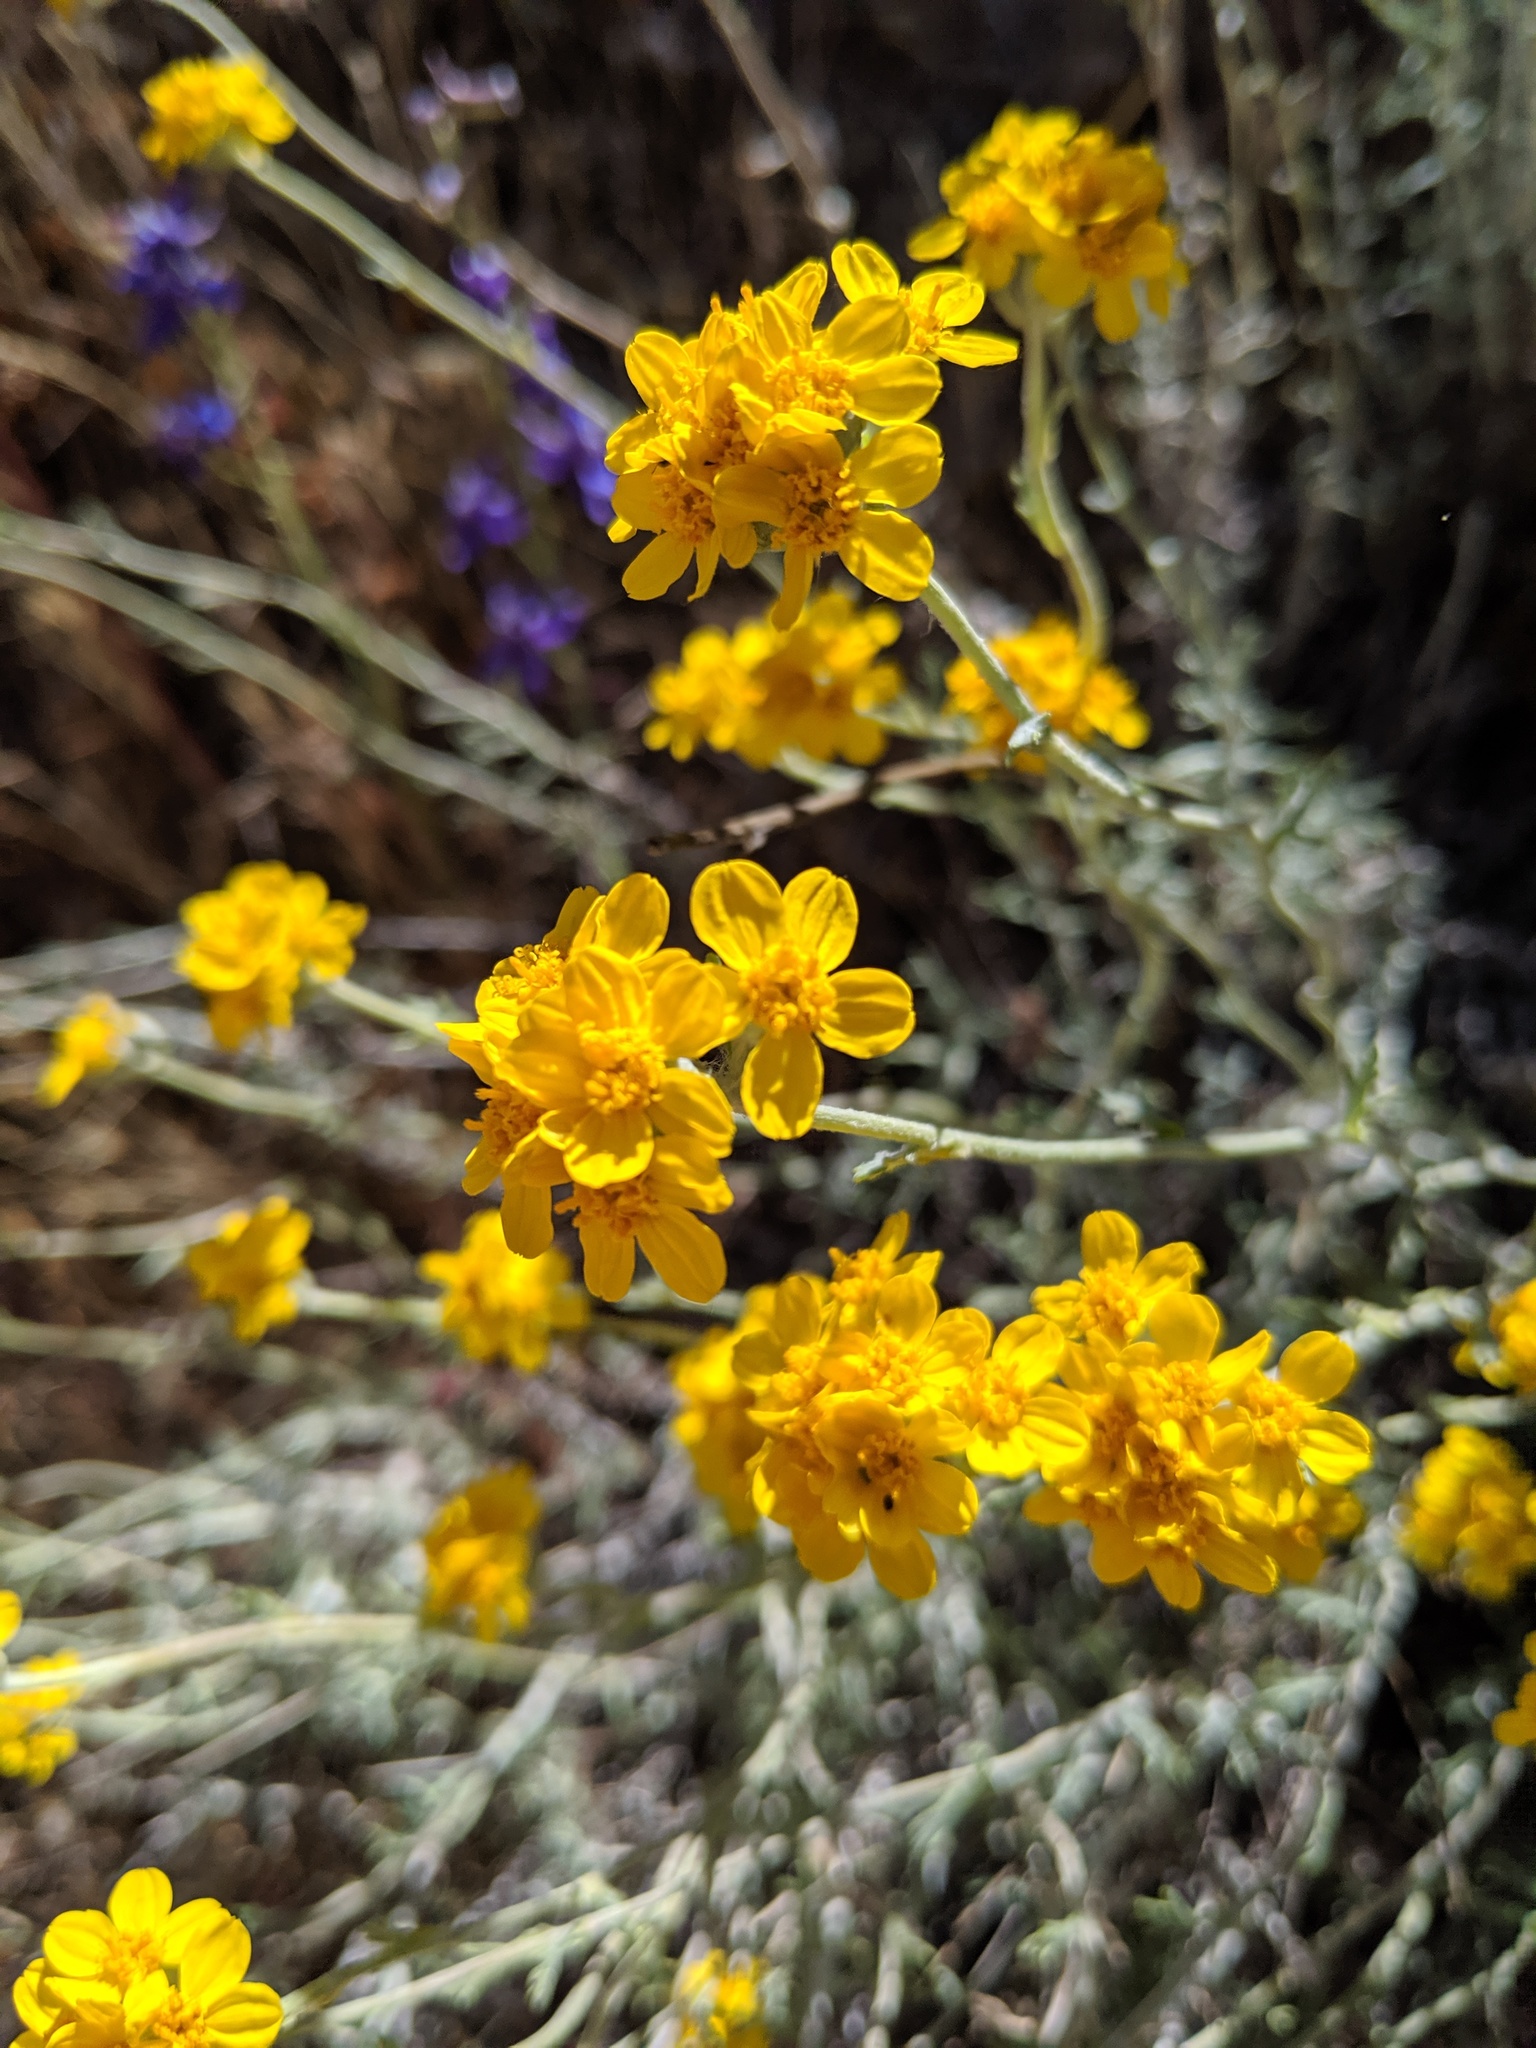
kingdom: Plantae
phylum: Tracheophyta
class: Magnoliopsida
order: Asterales
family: Asteraceae
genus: Eriophyllum
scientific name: Eriophyllum confertiflorum
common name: Golden-yarrow
